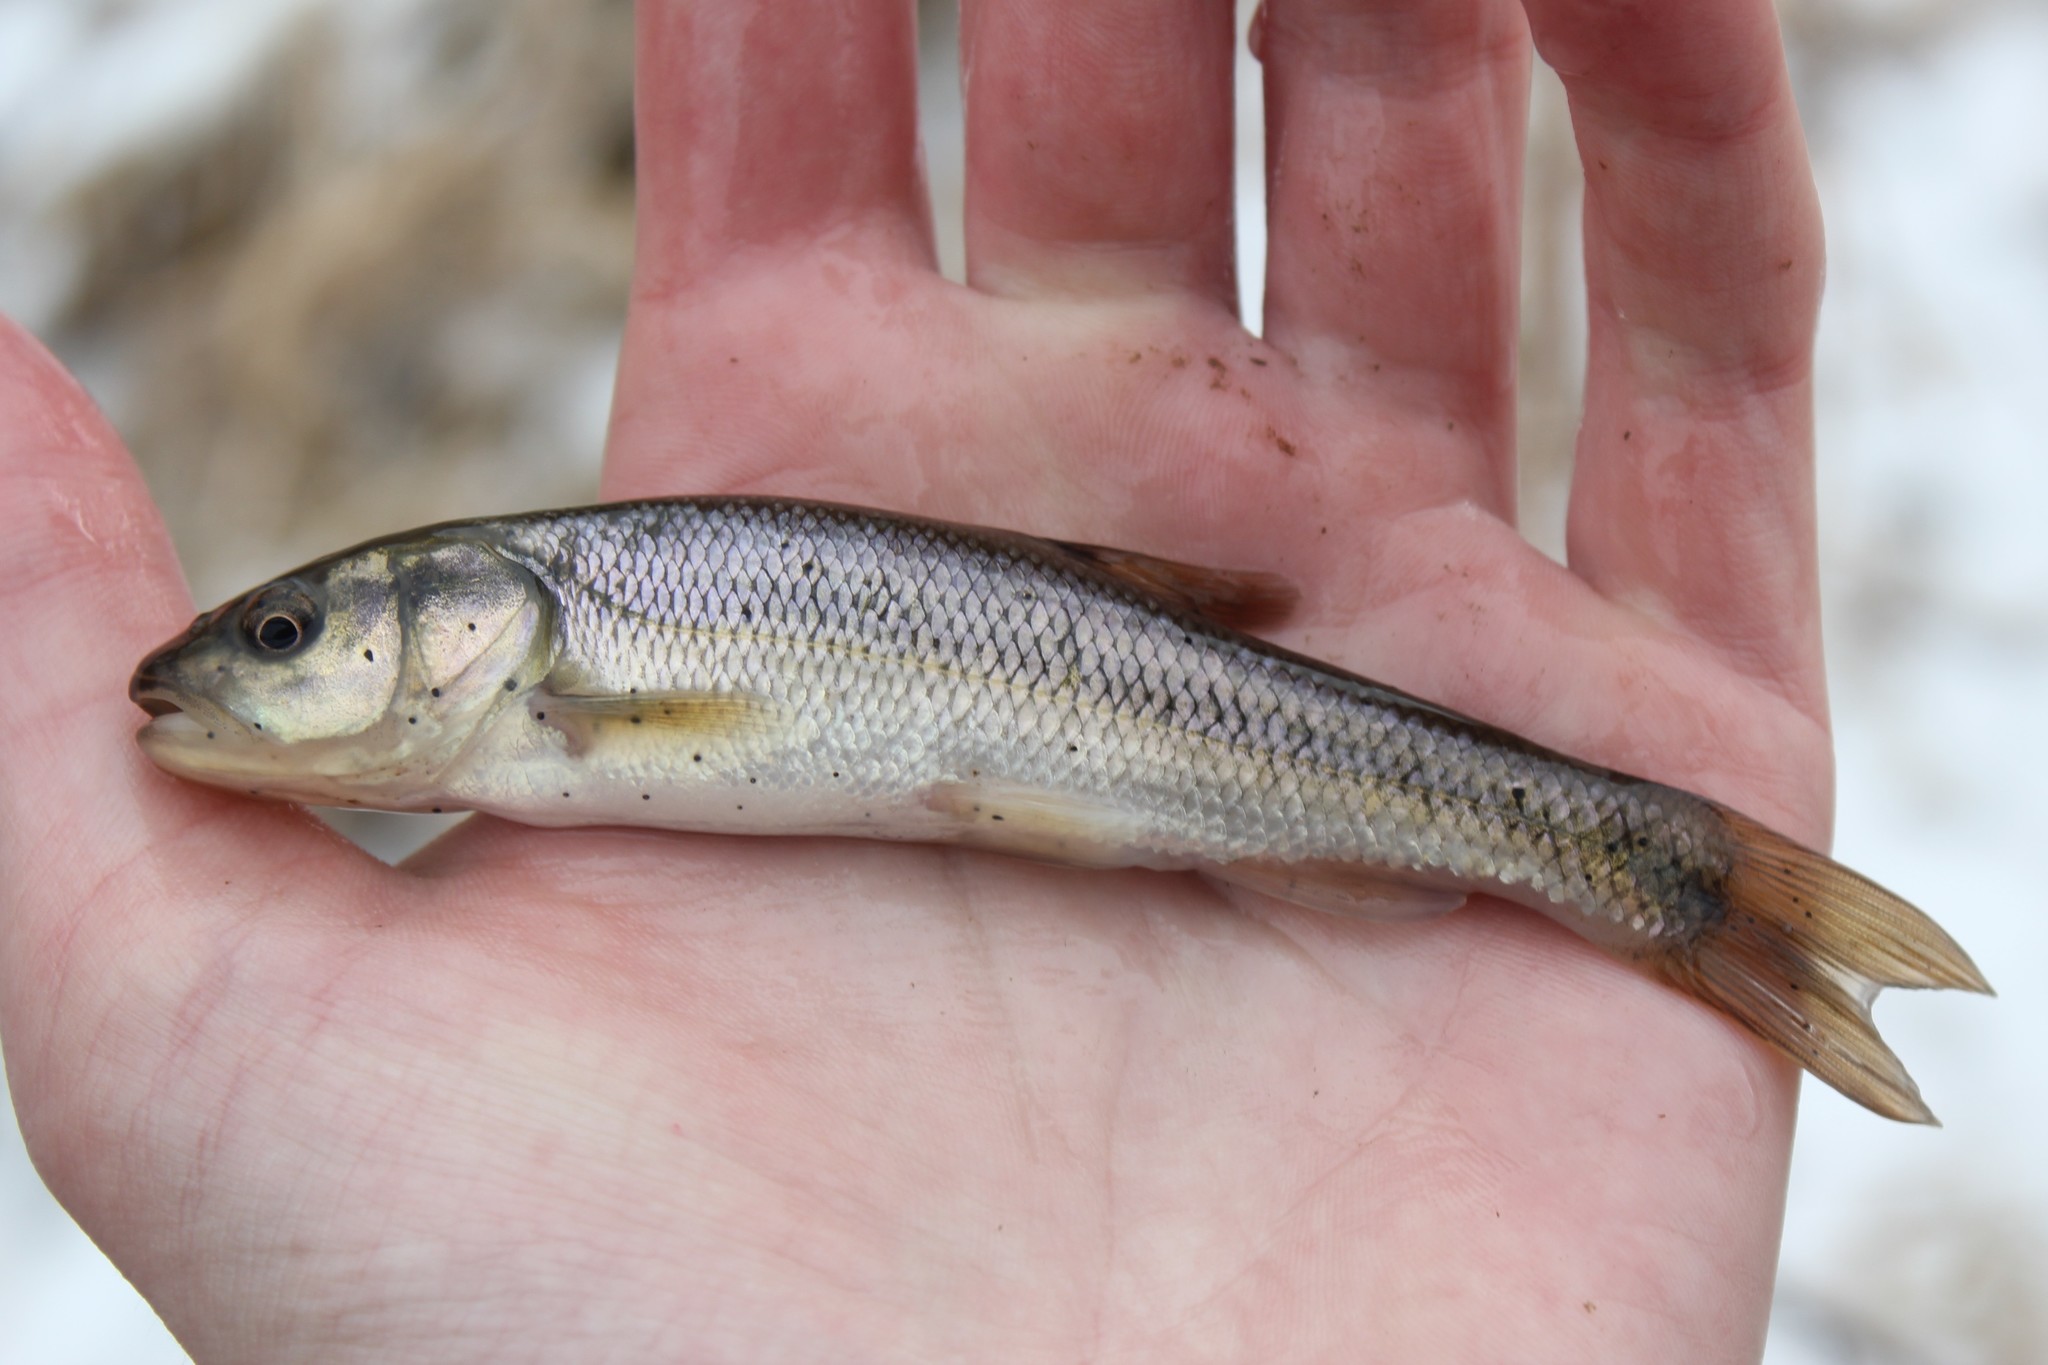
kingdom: Animalia
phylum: Chordata
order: Cypriniformes
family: Cyprinidae
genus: Semotilus
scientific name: Semotilus atromaculatus
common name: Creek chub
